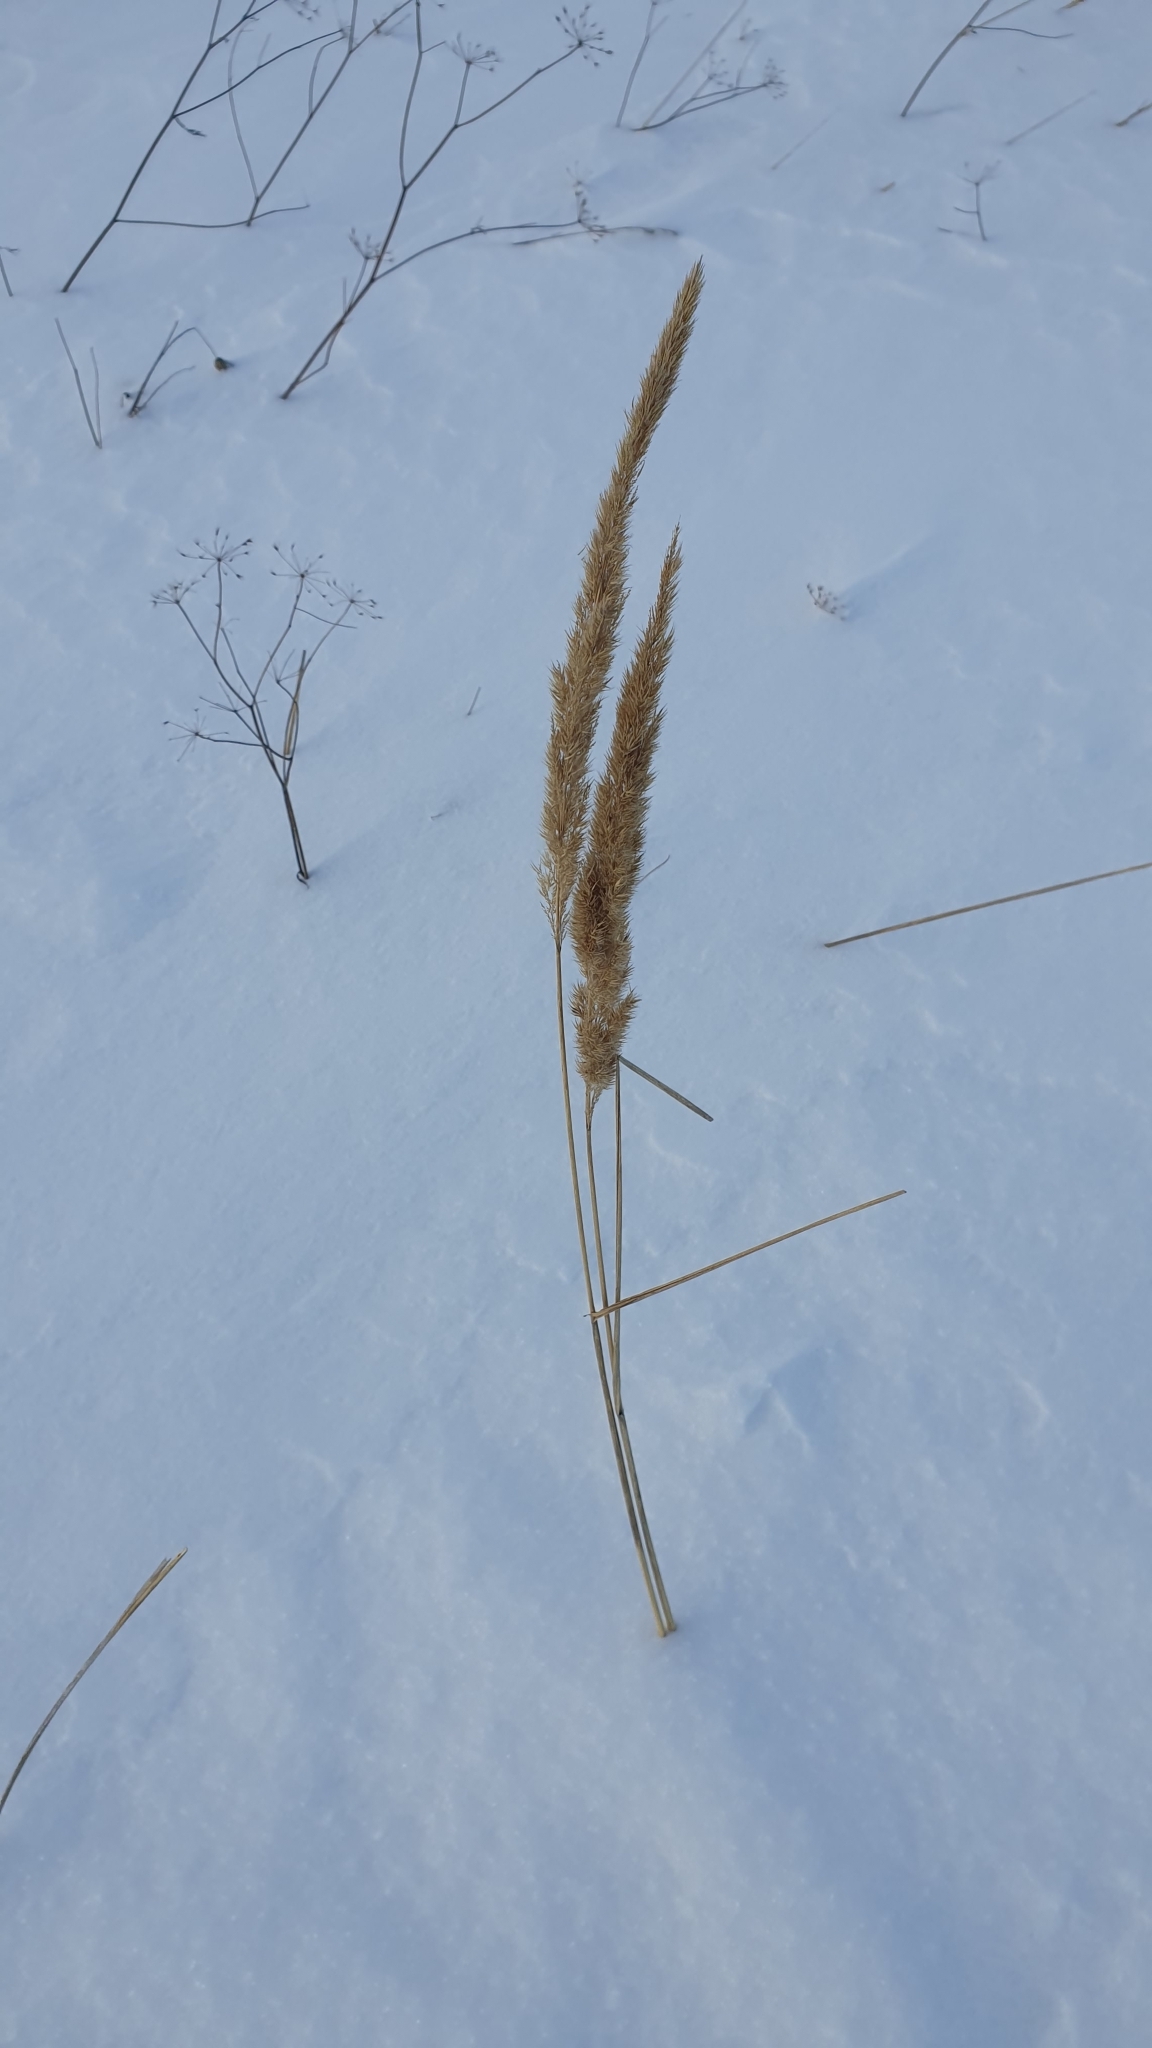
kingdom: Plantae
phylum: Tracheophyta
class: Liliopsida
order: Poales
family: Poaceae
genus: Calamagrostis
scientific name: Calamagrostis epigejos
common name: Wood small-reed
